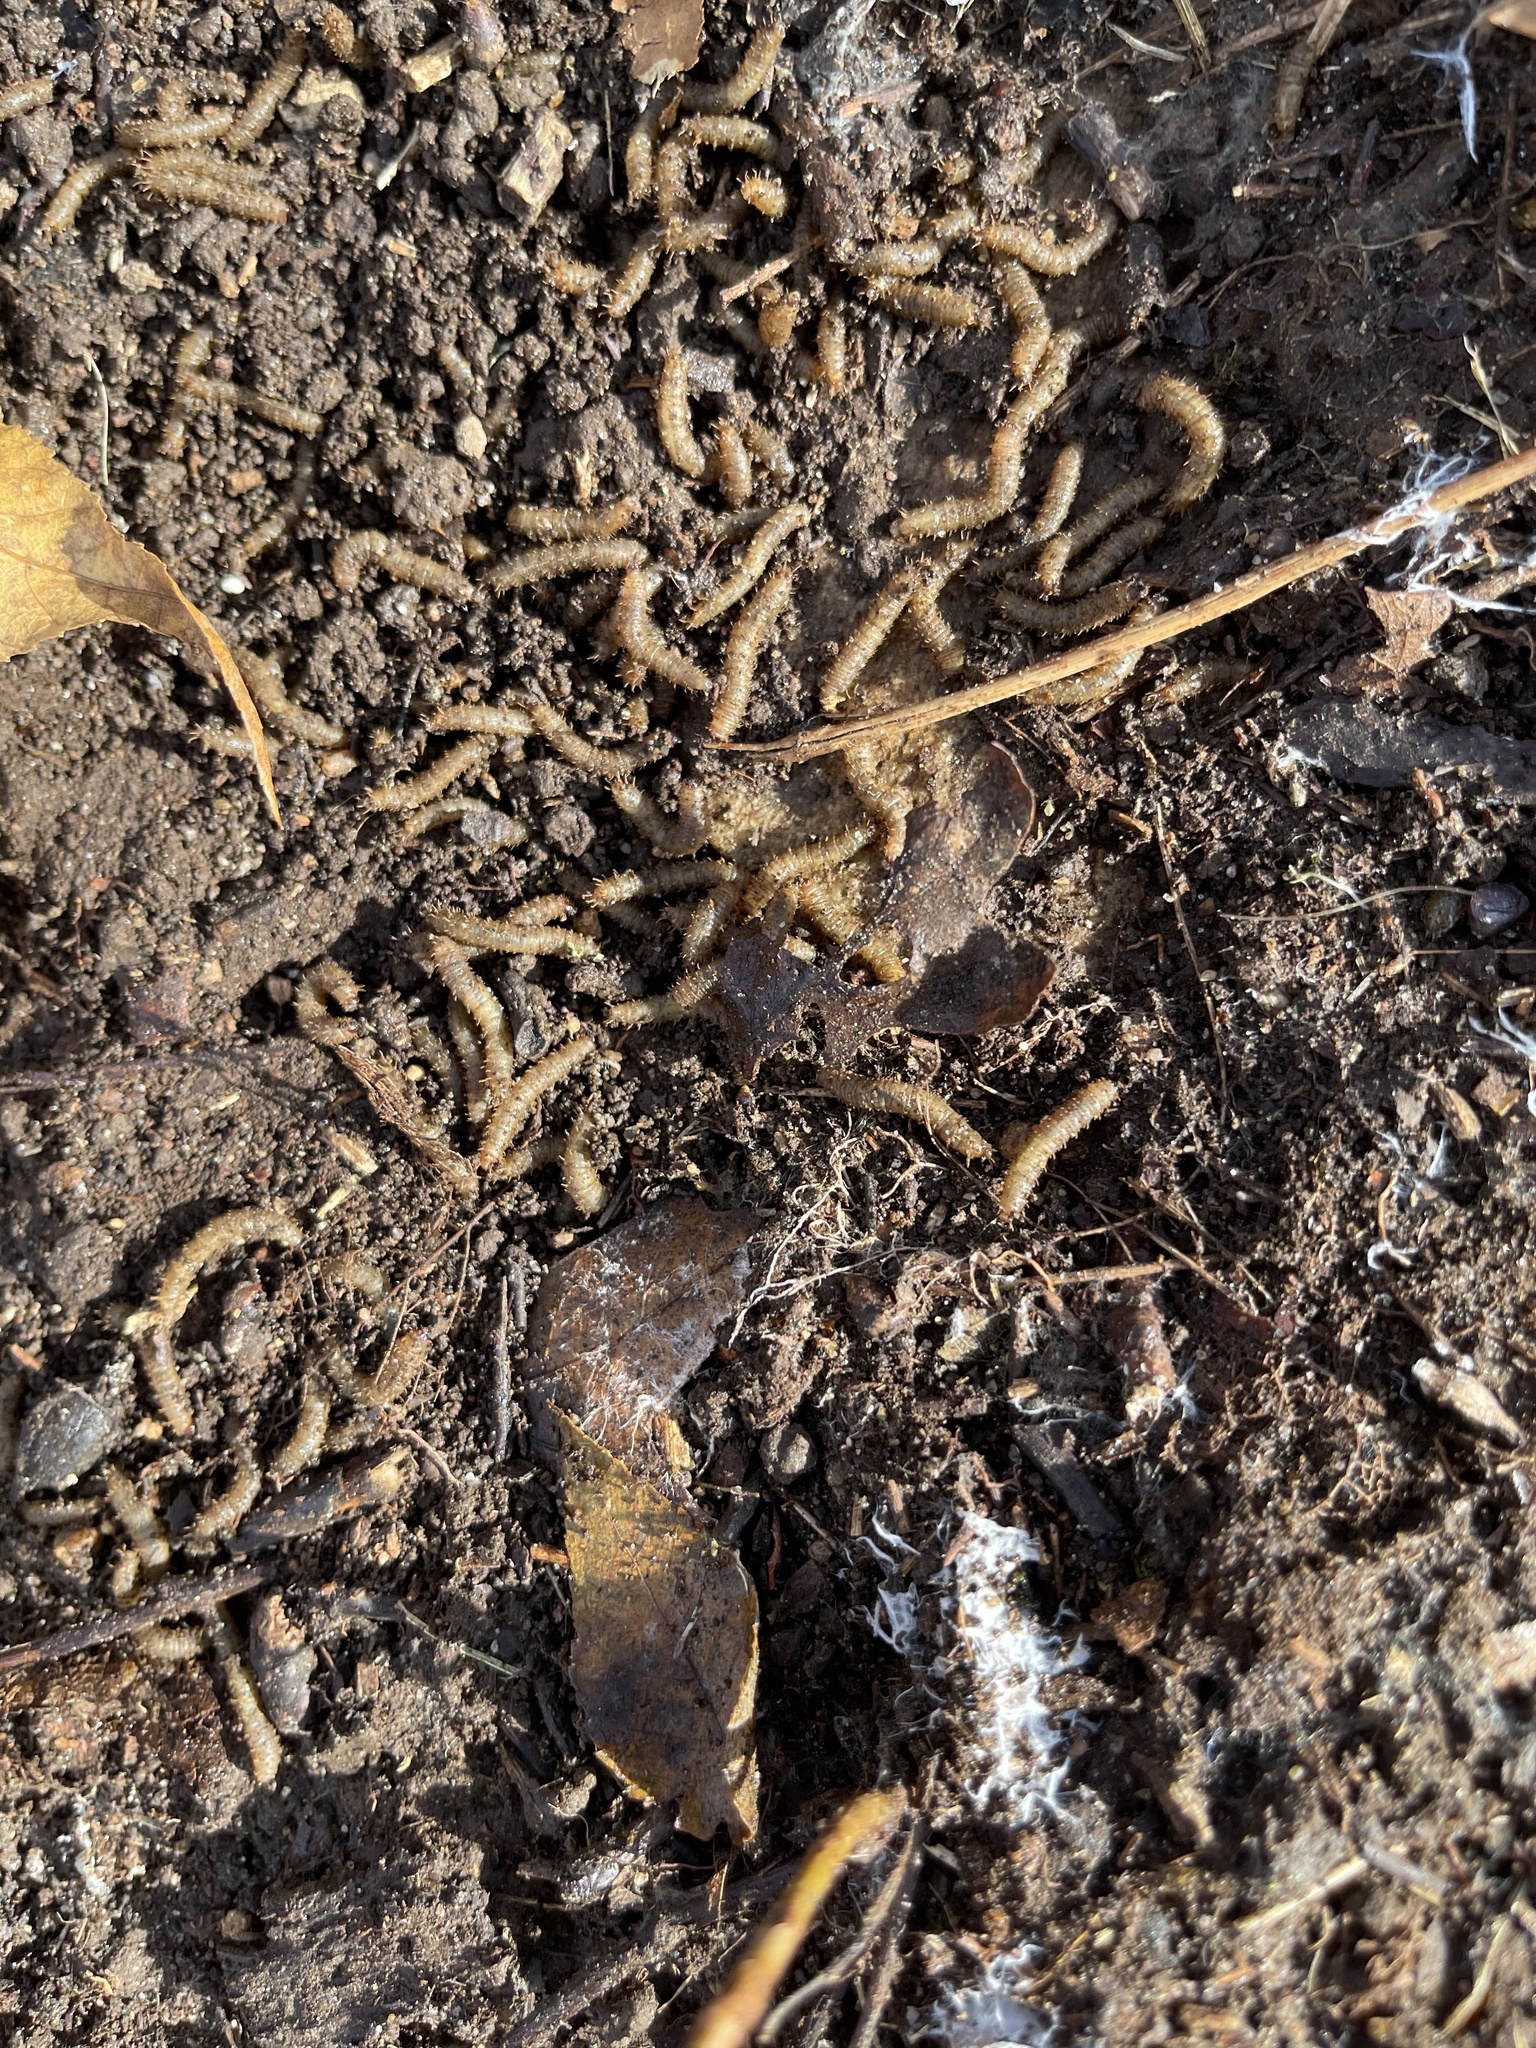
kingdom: Animalia
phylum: Arthropoda
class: Insecta
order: Diptera
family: Bibionidae
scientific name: Bibionidae
